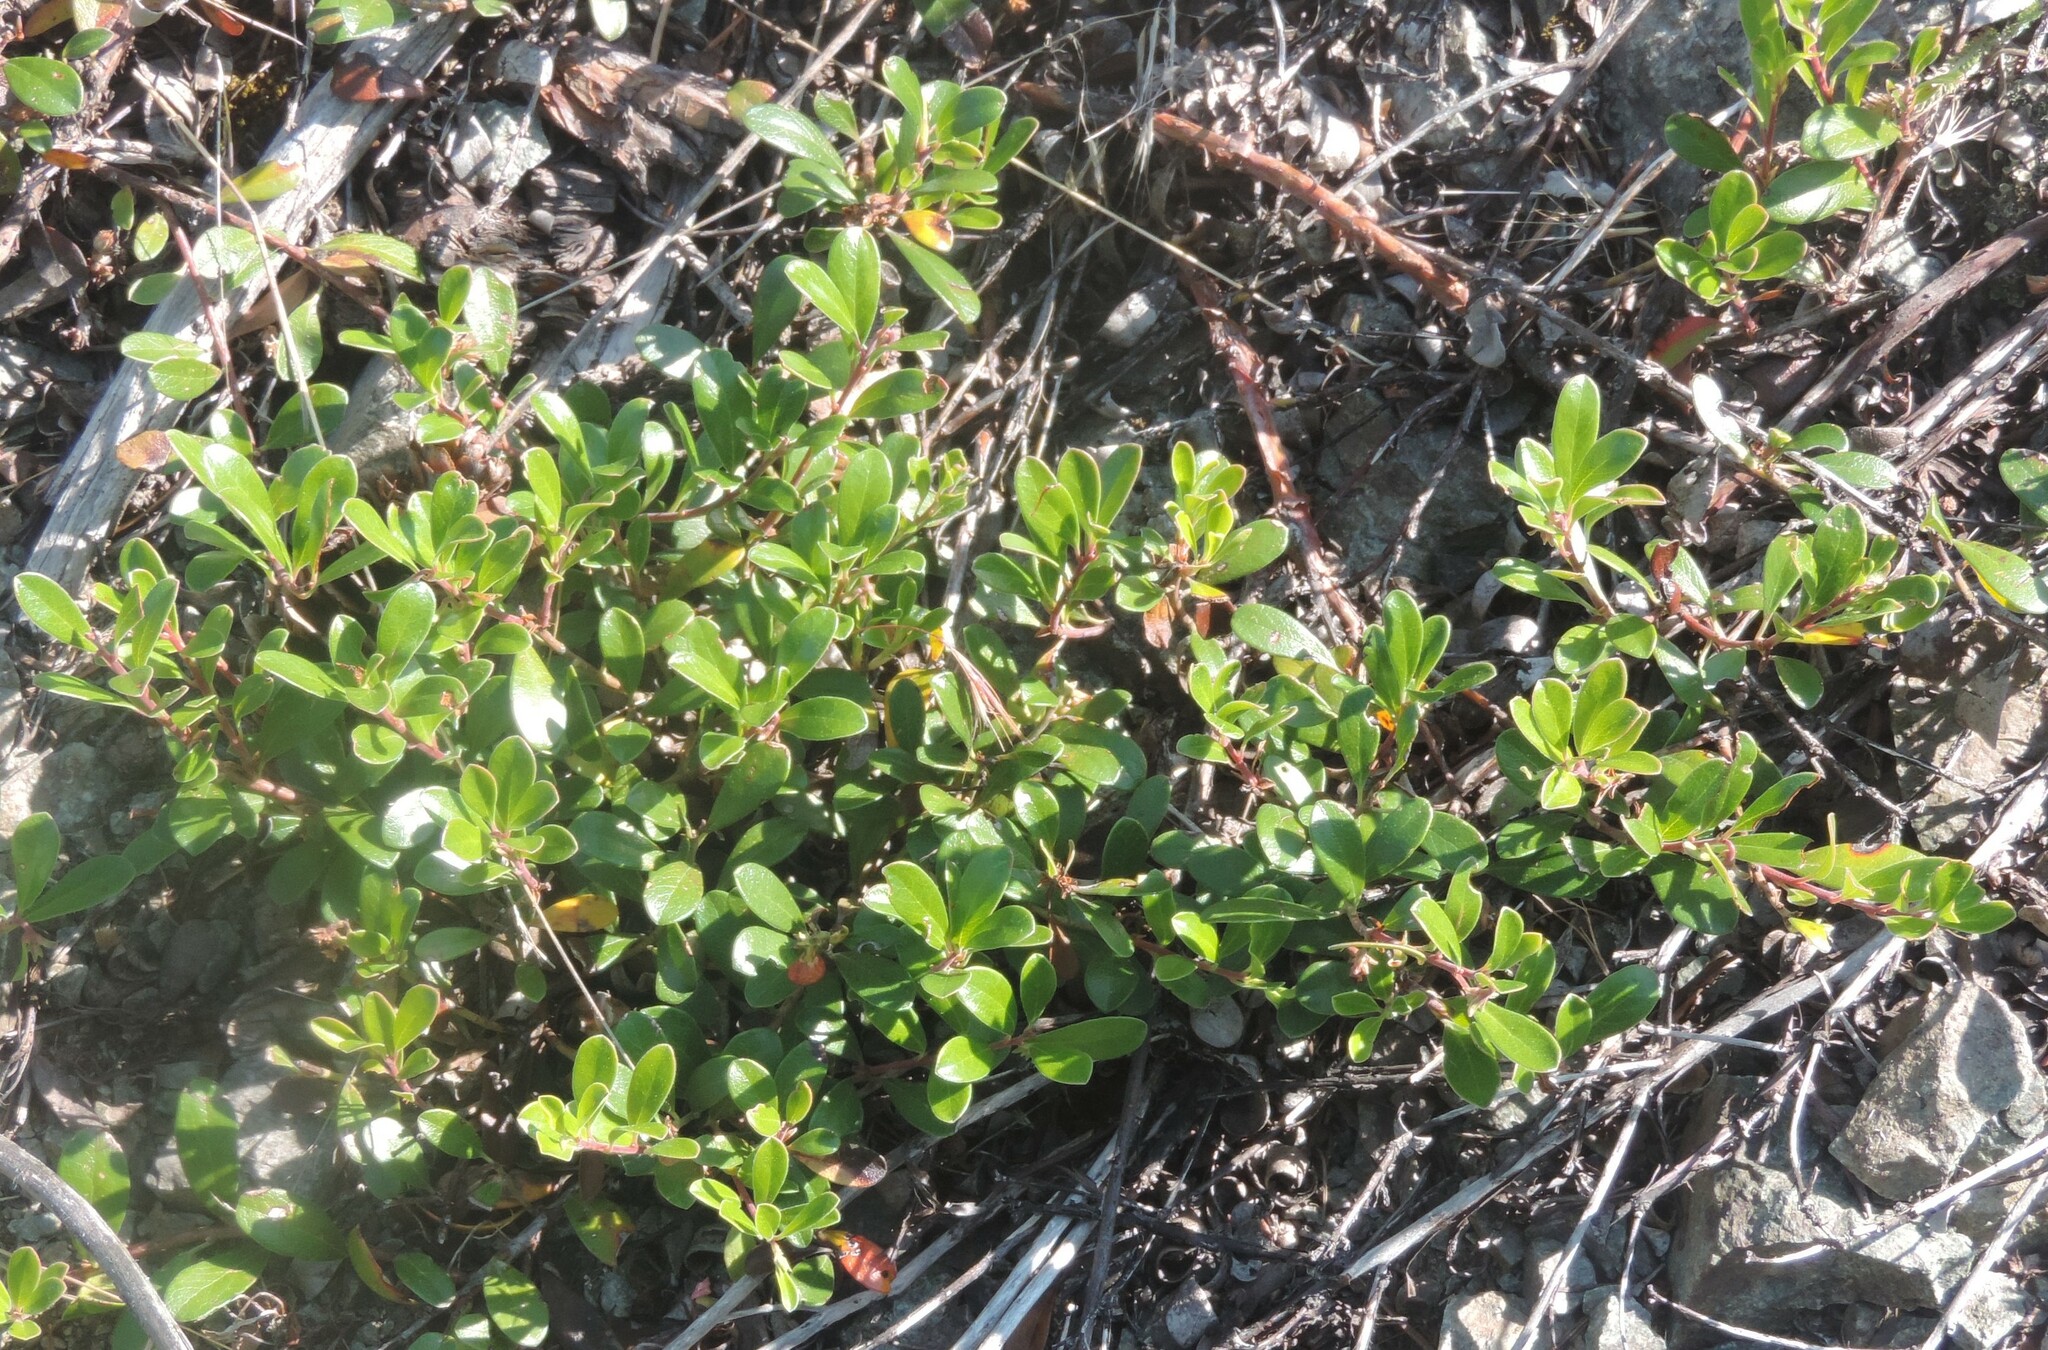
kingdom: Plantae
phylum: Tracheophyta
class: Magnoliopsida
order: Ericales
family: Ericaceae
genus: Arctostaphylos
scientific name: Arctostaphylos uva-ursi
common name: Bearberry
